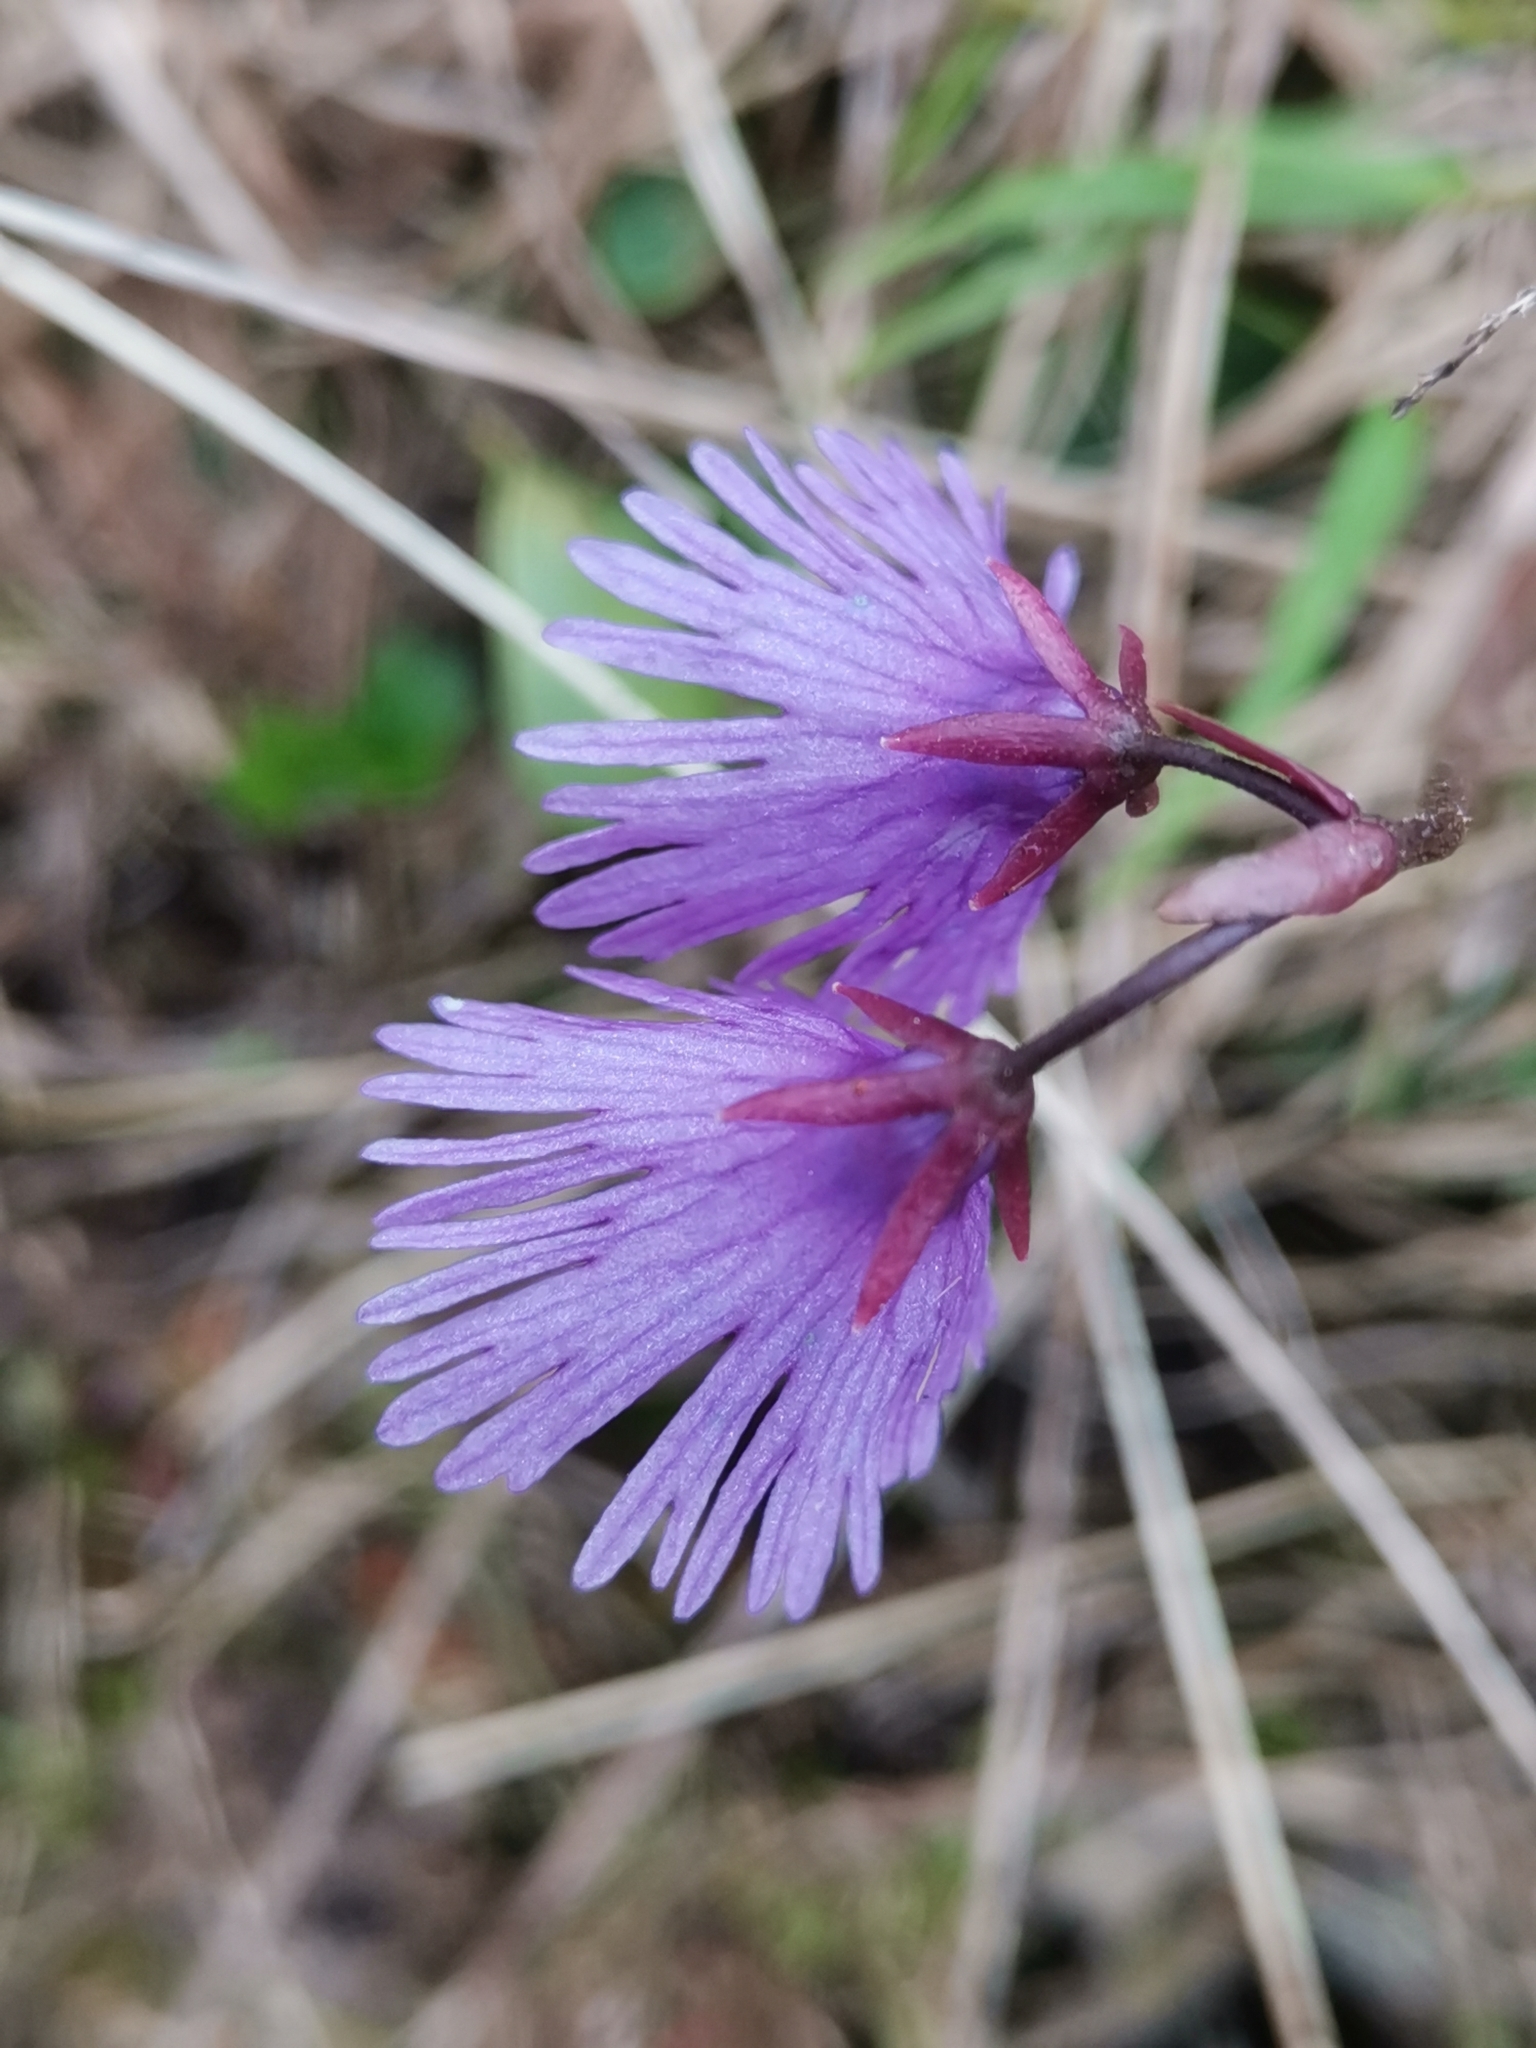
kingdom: Plantae
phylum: Tracheophyta
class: Magnoliopsida
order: Ericales
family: Primulaceae
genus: Soldanella
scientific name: Soldanella alpina
